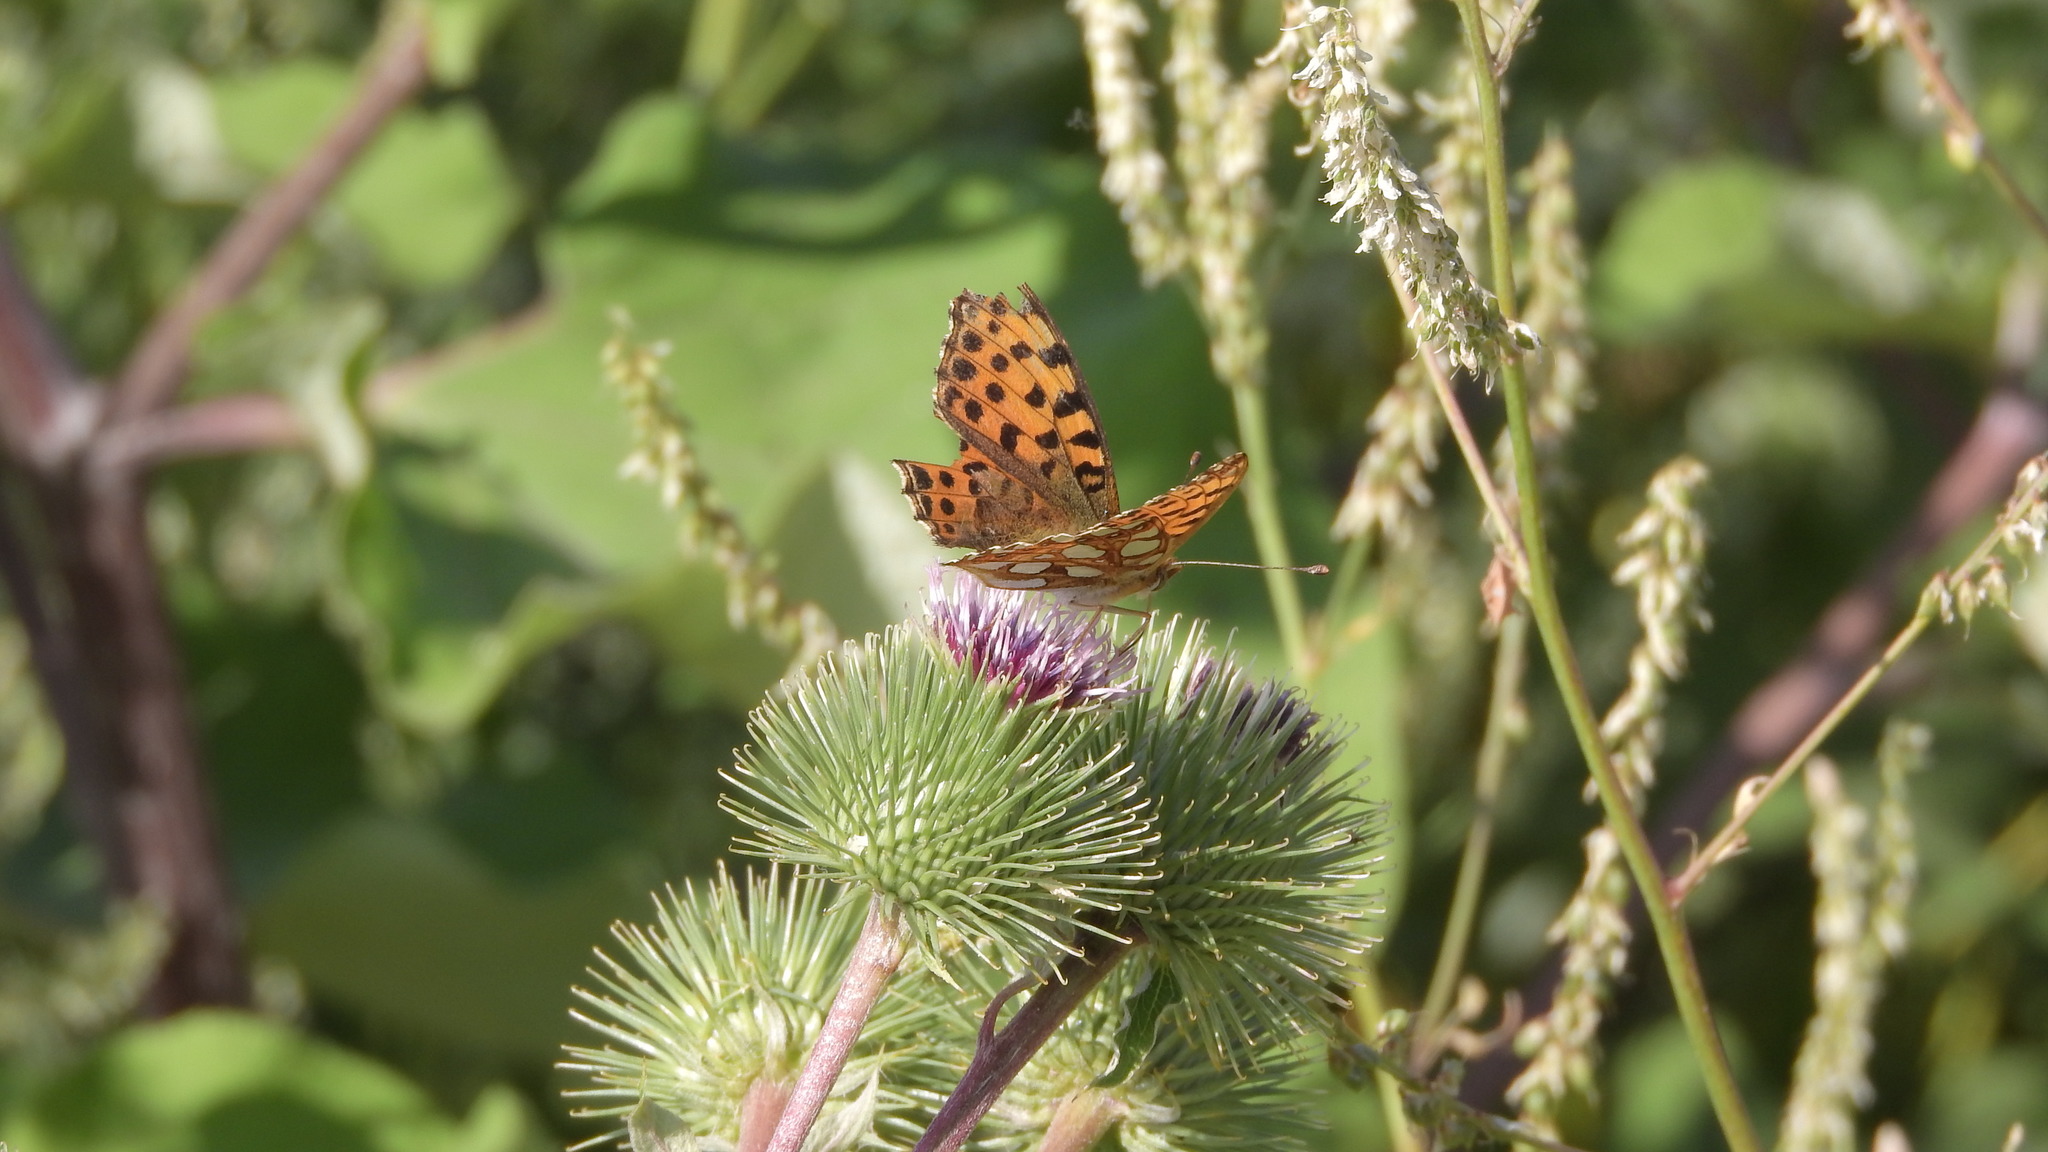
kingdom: Animalia
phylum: Arthropoda
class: Insecta
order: Lepidoptera
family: Nymphalidae
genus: Issoria
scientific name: Issoria lathonia
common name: Queen of spain fritillary
